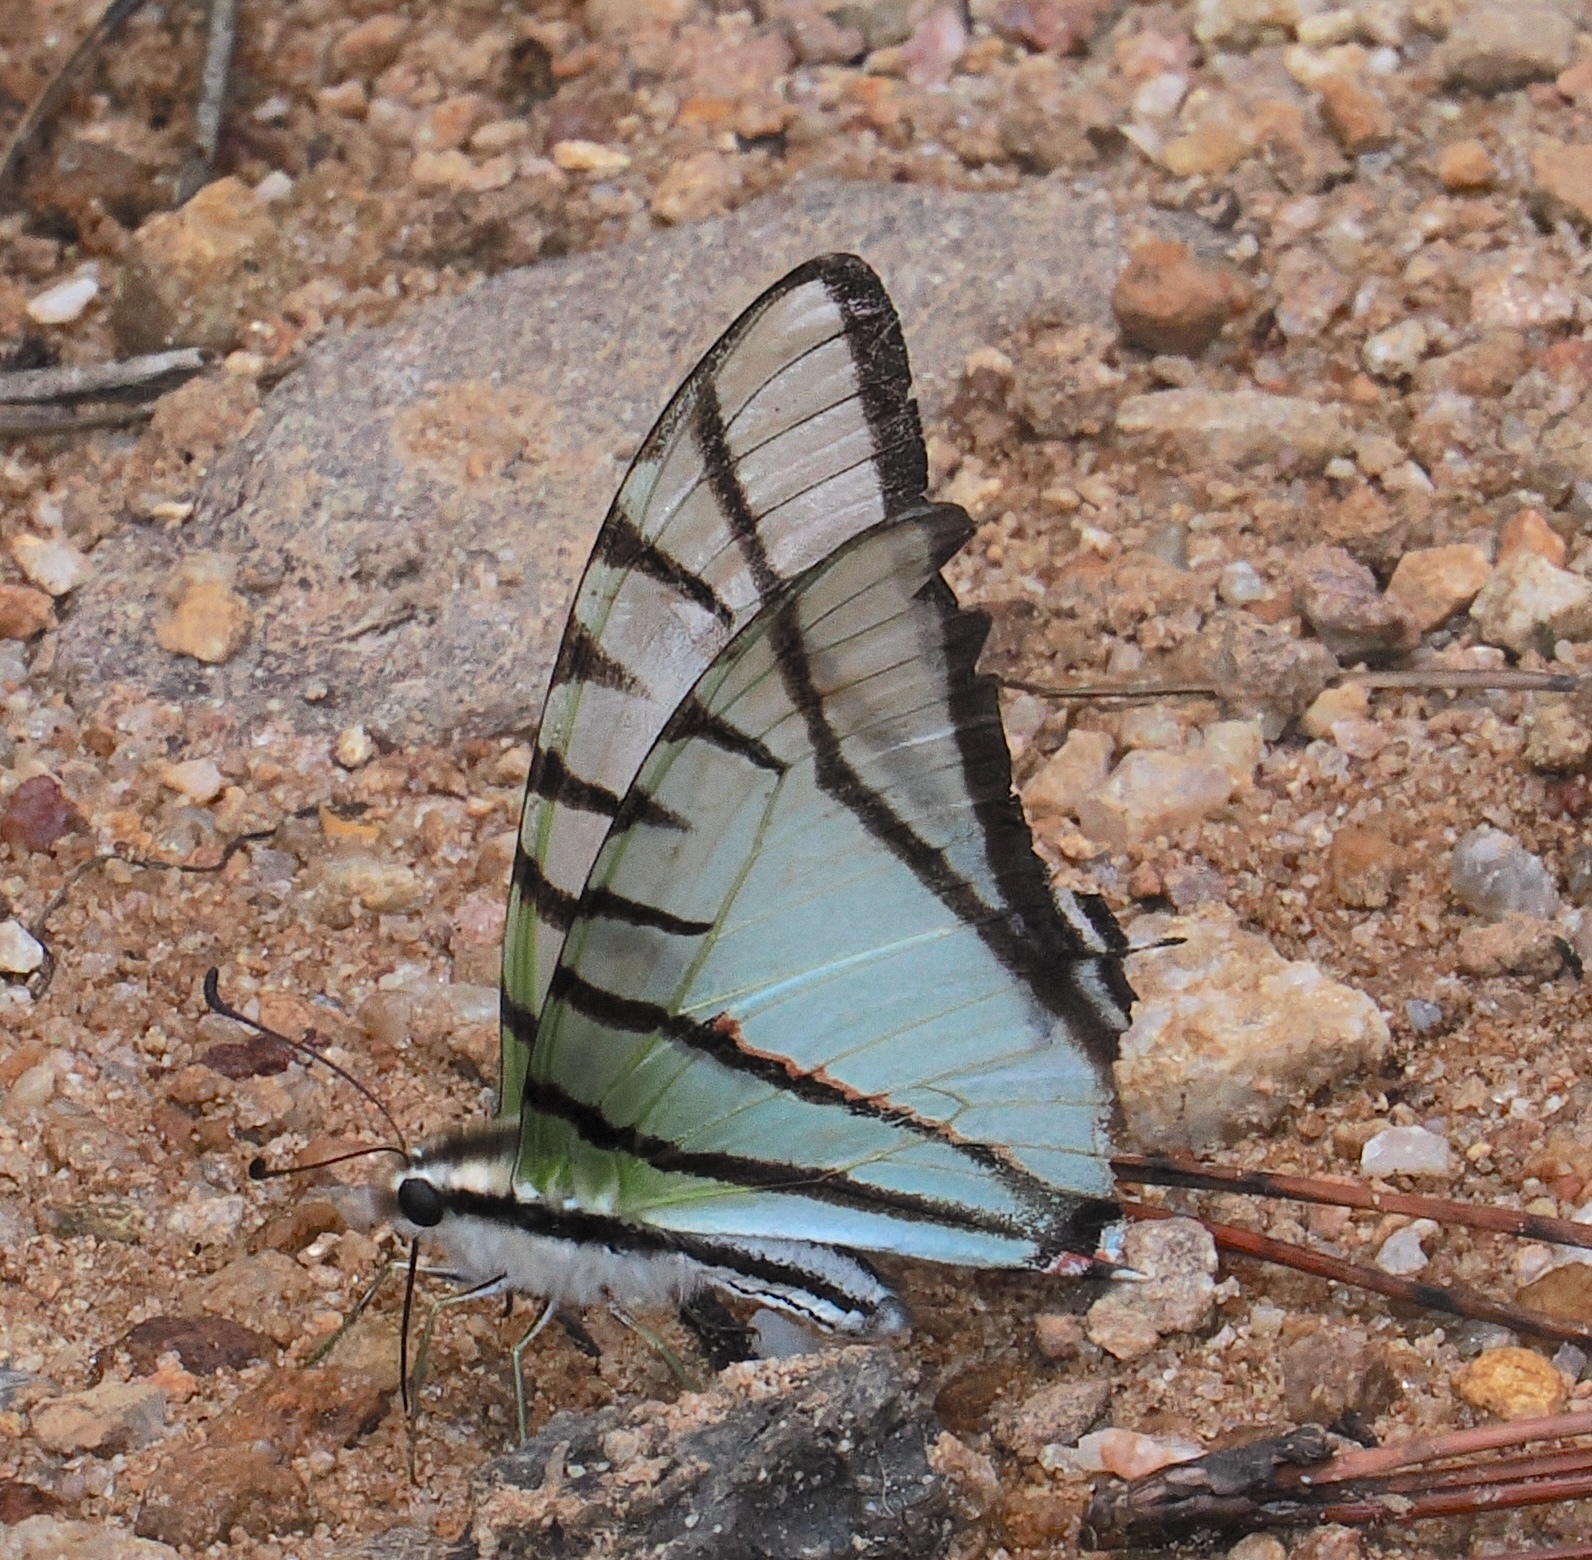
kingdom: Animalia
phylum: Arthropoda
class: Insecta
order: Lepidoptera
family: Papilionidae
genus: Protesilaus
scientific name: Protesilaus protesilaus
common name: Great kite-swallowtail
